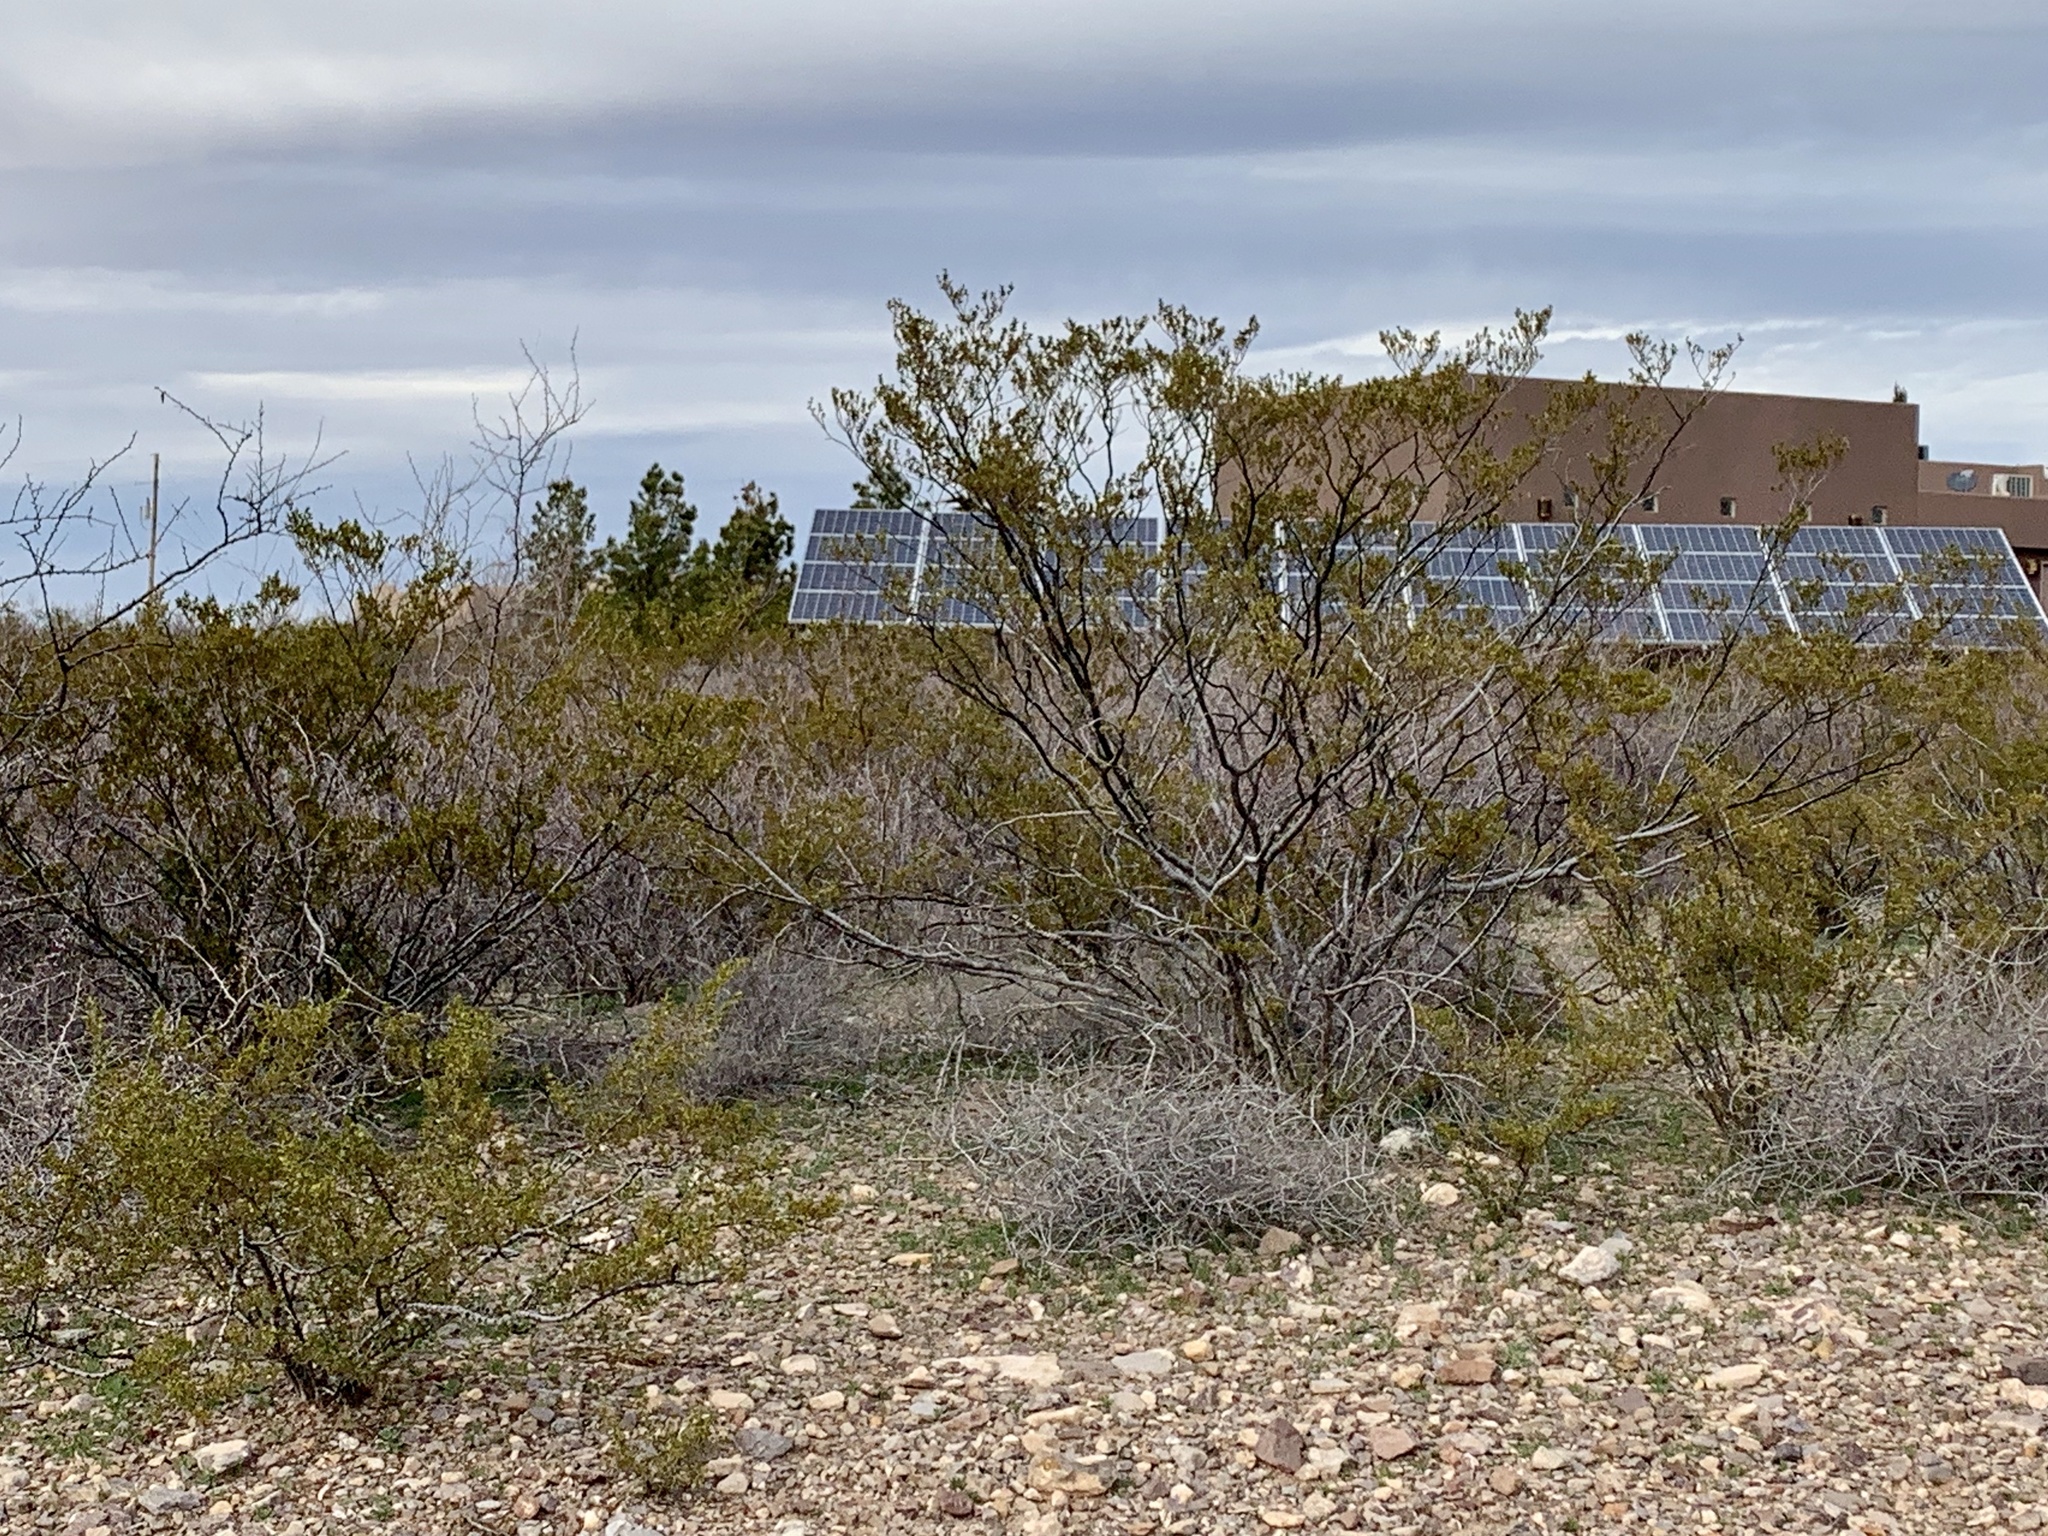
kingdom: Plantae
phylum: Tracheophyta
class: Magnoliopsida
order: Zygophyllales
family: Zygophyllaceae
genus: Larrea
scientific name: Larrea tridentata
